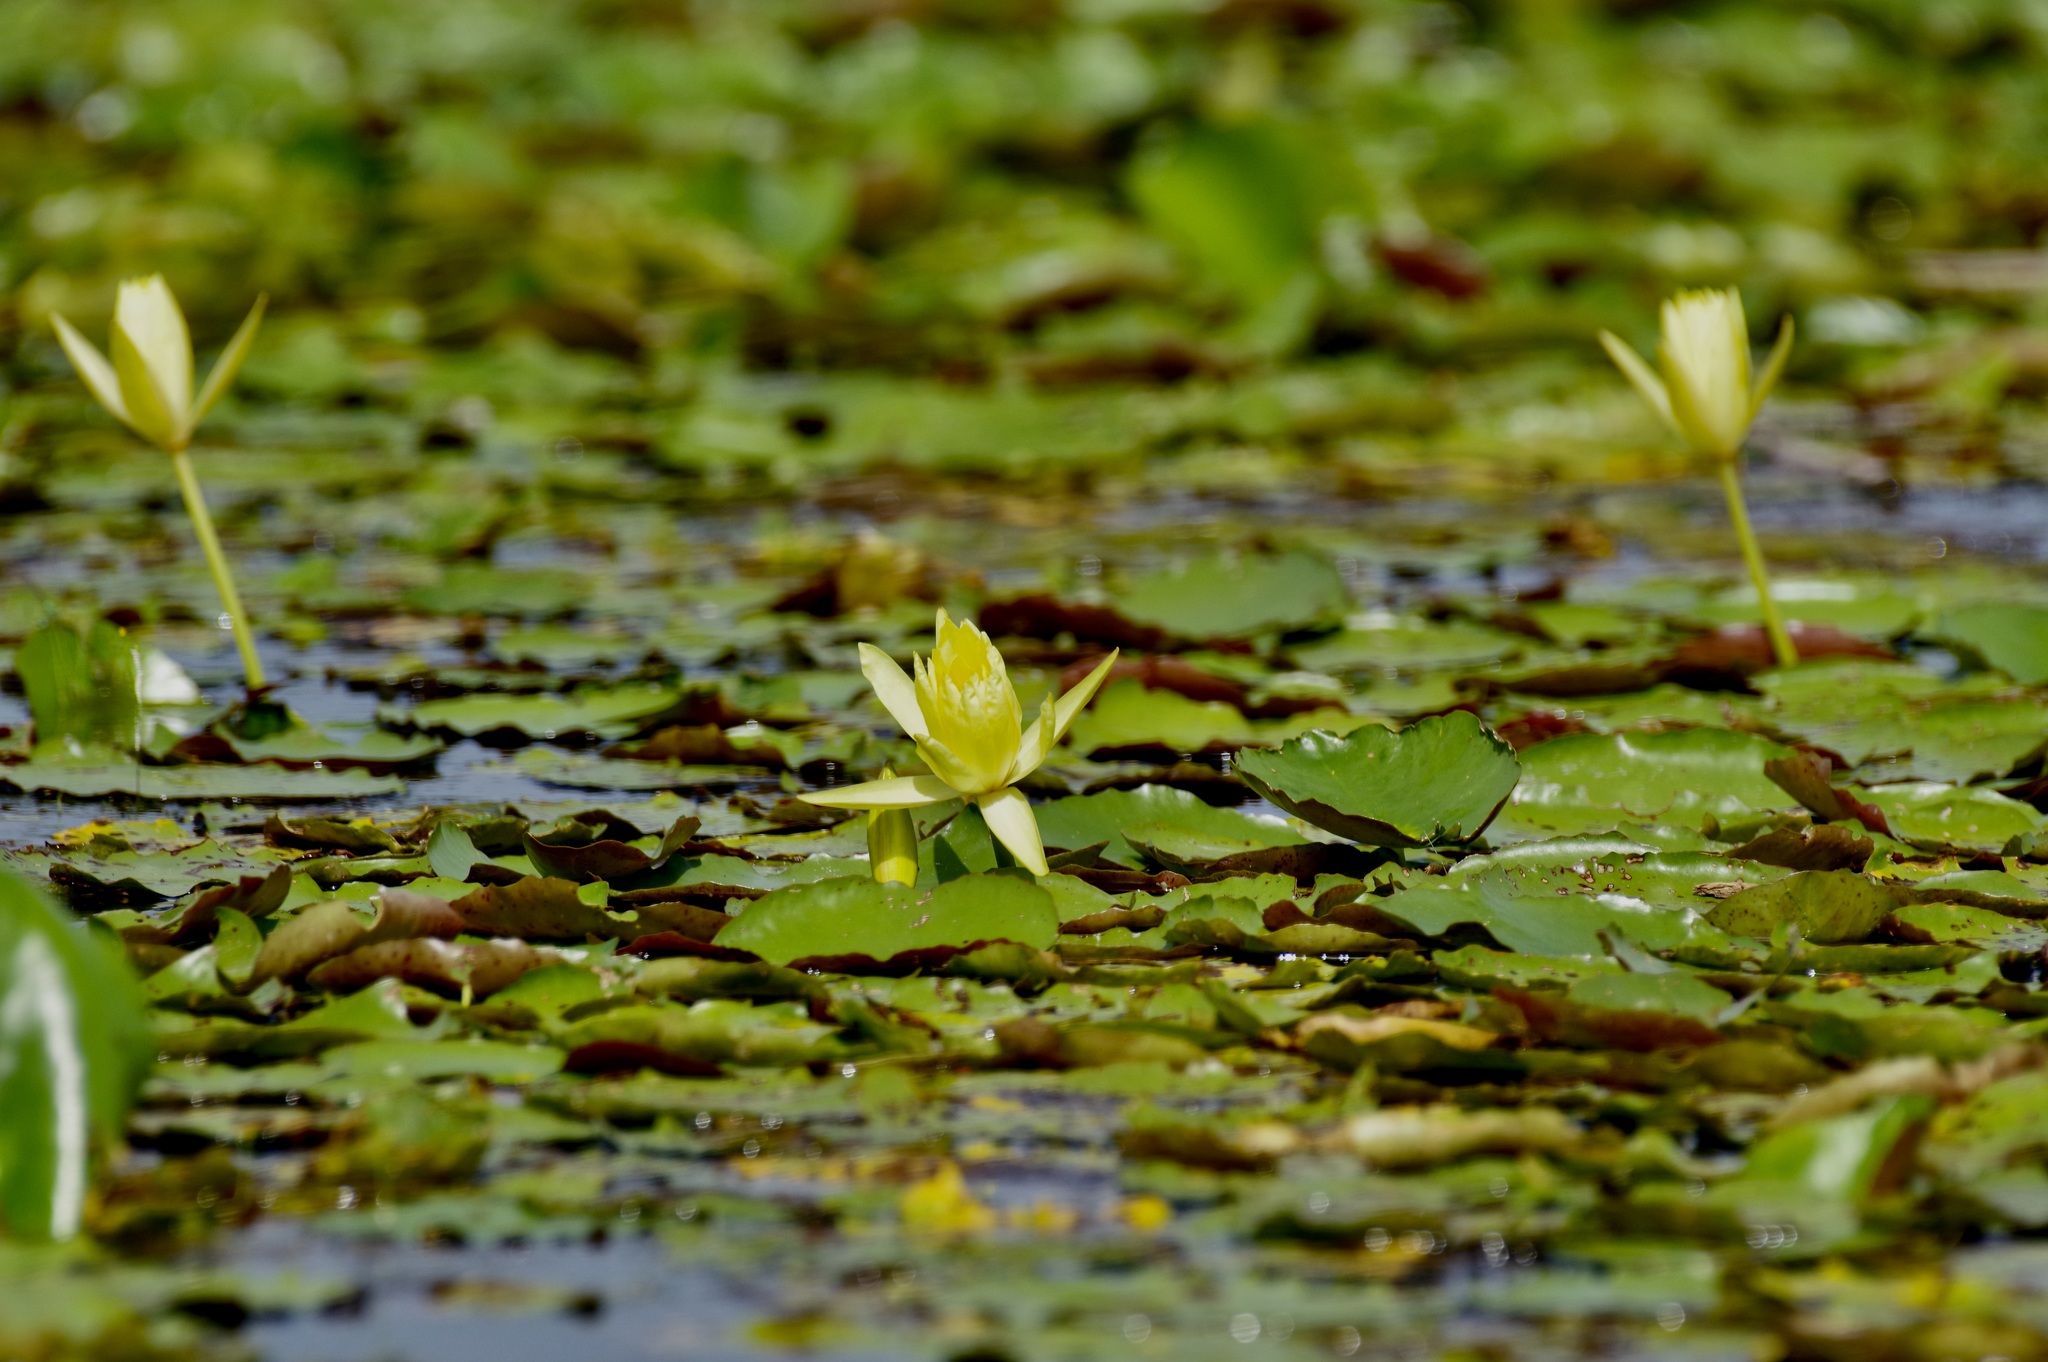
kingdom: Plantae
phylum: Tracheophyta
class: Magnoliopsida
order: Nymphaeales
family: Nymphaeaceae
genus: Nymphaea
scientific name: Nymphaea mexicana
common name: Banana water-lily
